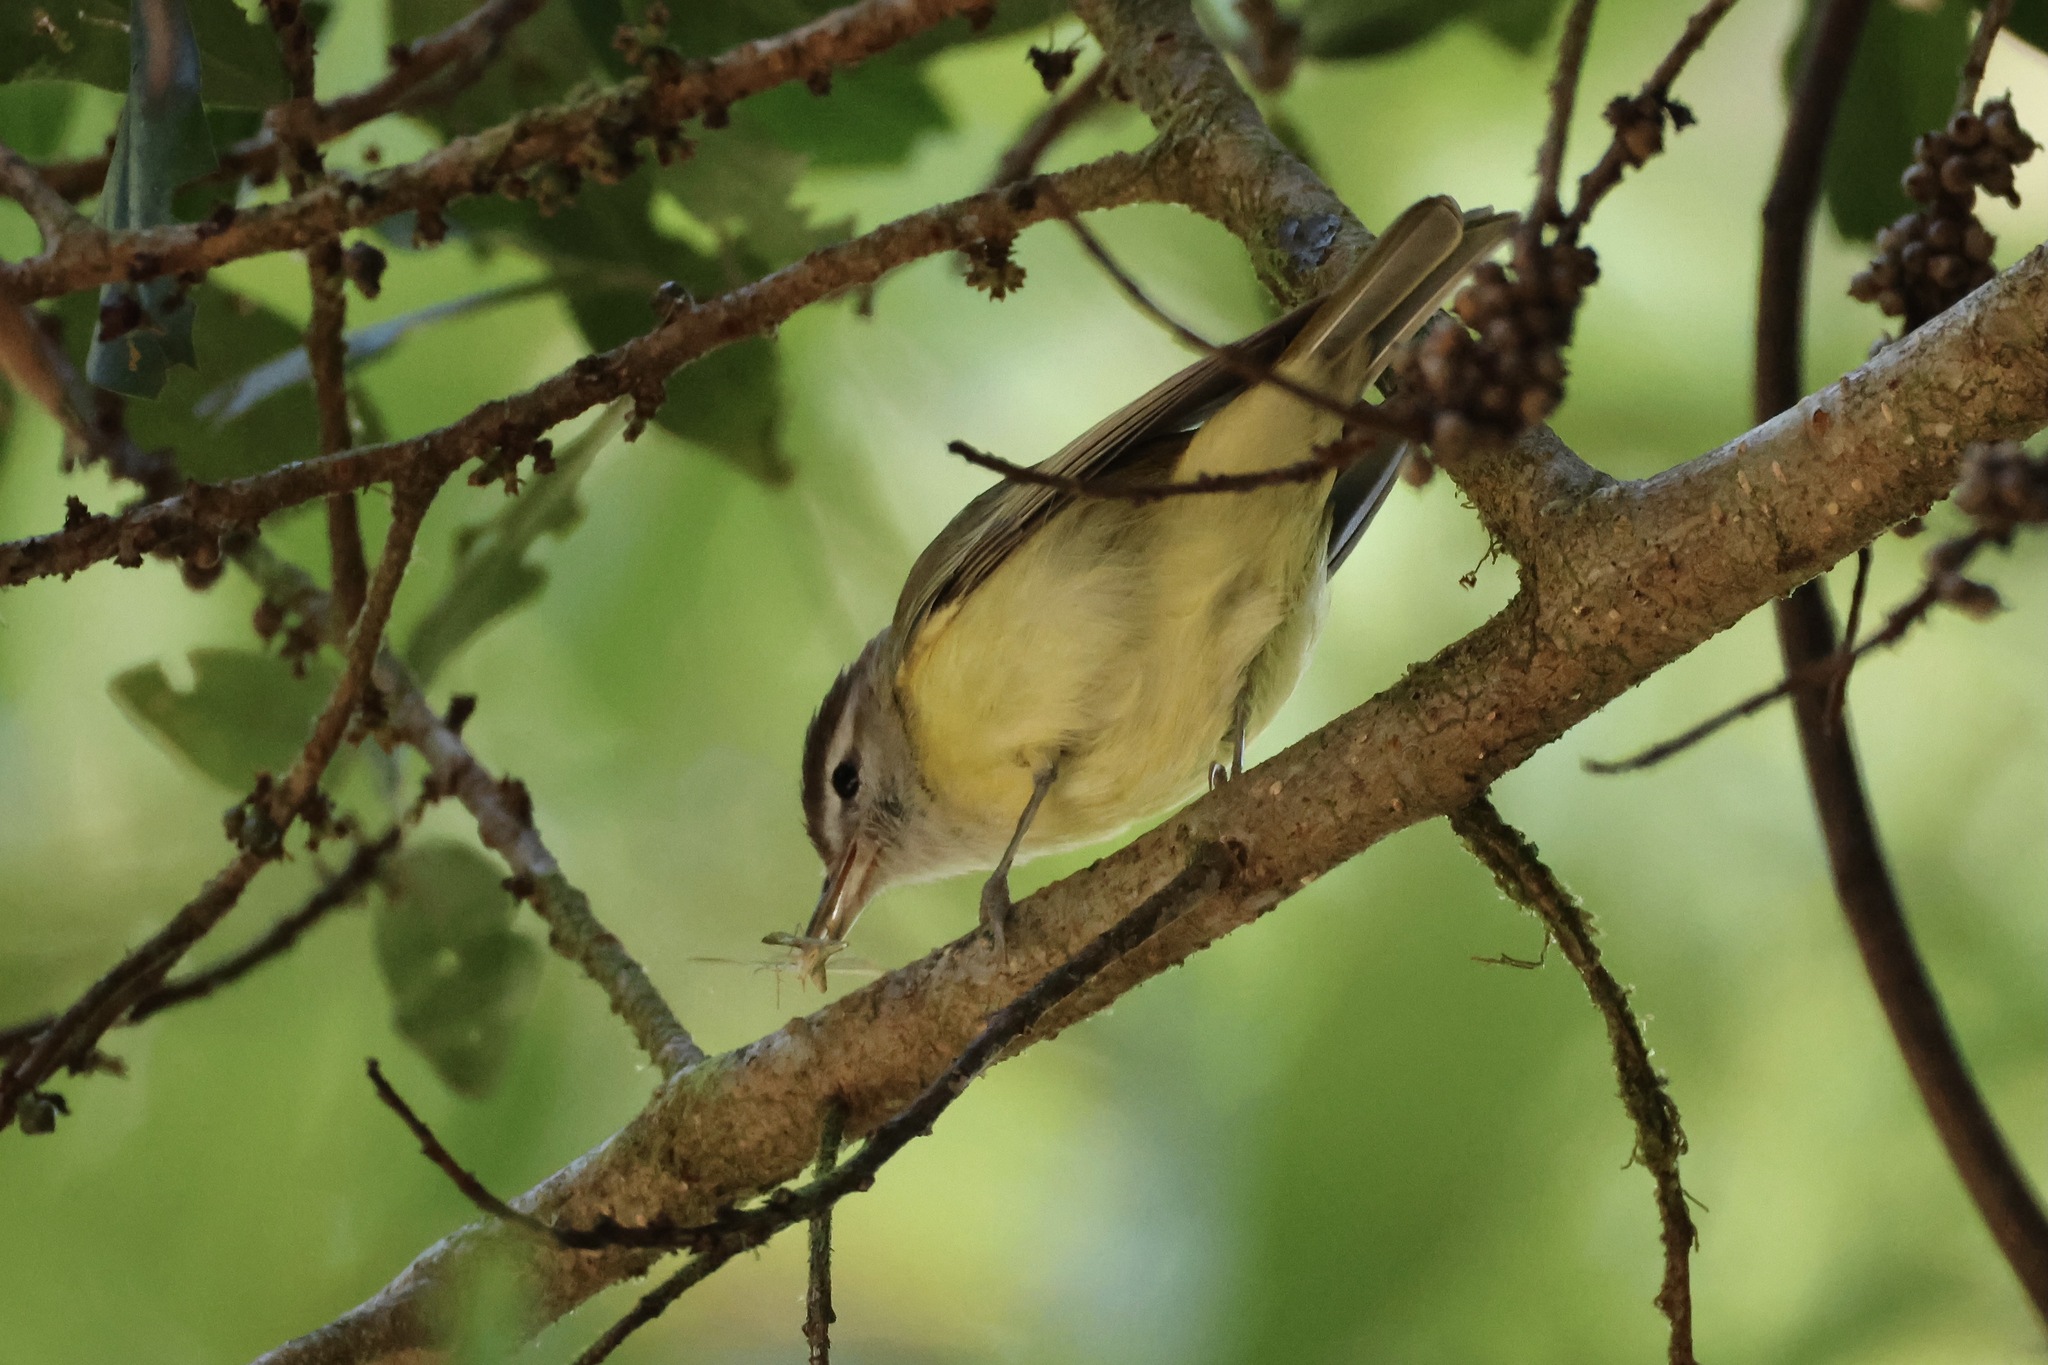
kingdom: Animalia
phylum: Chordata
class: Aves
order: Passeriformes
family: Vireonidae
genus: Vireo
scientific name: Vireo leucophrys
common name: Brown-capped vireo
